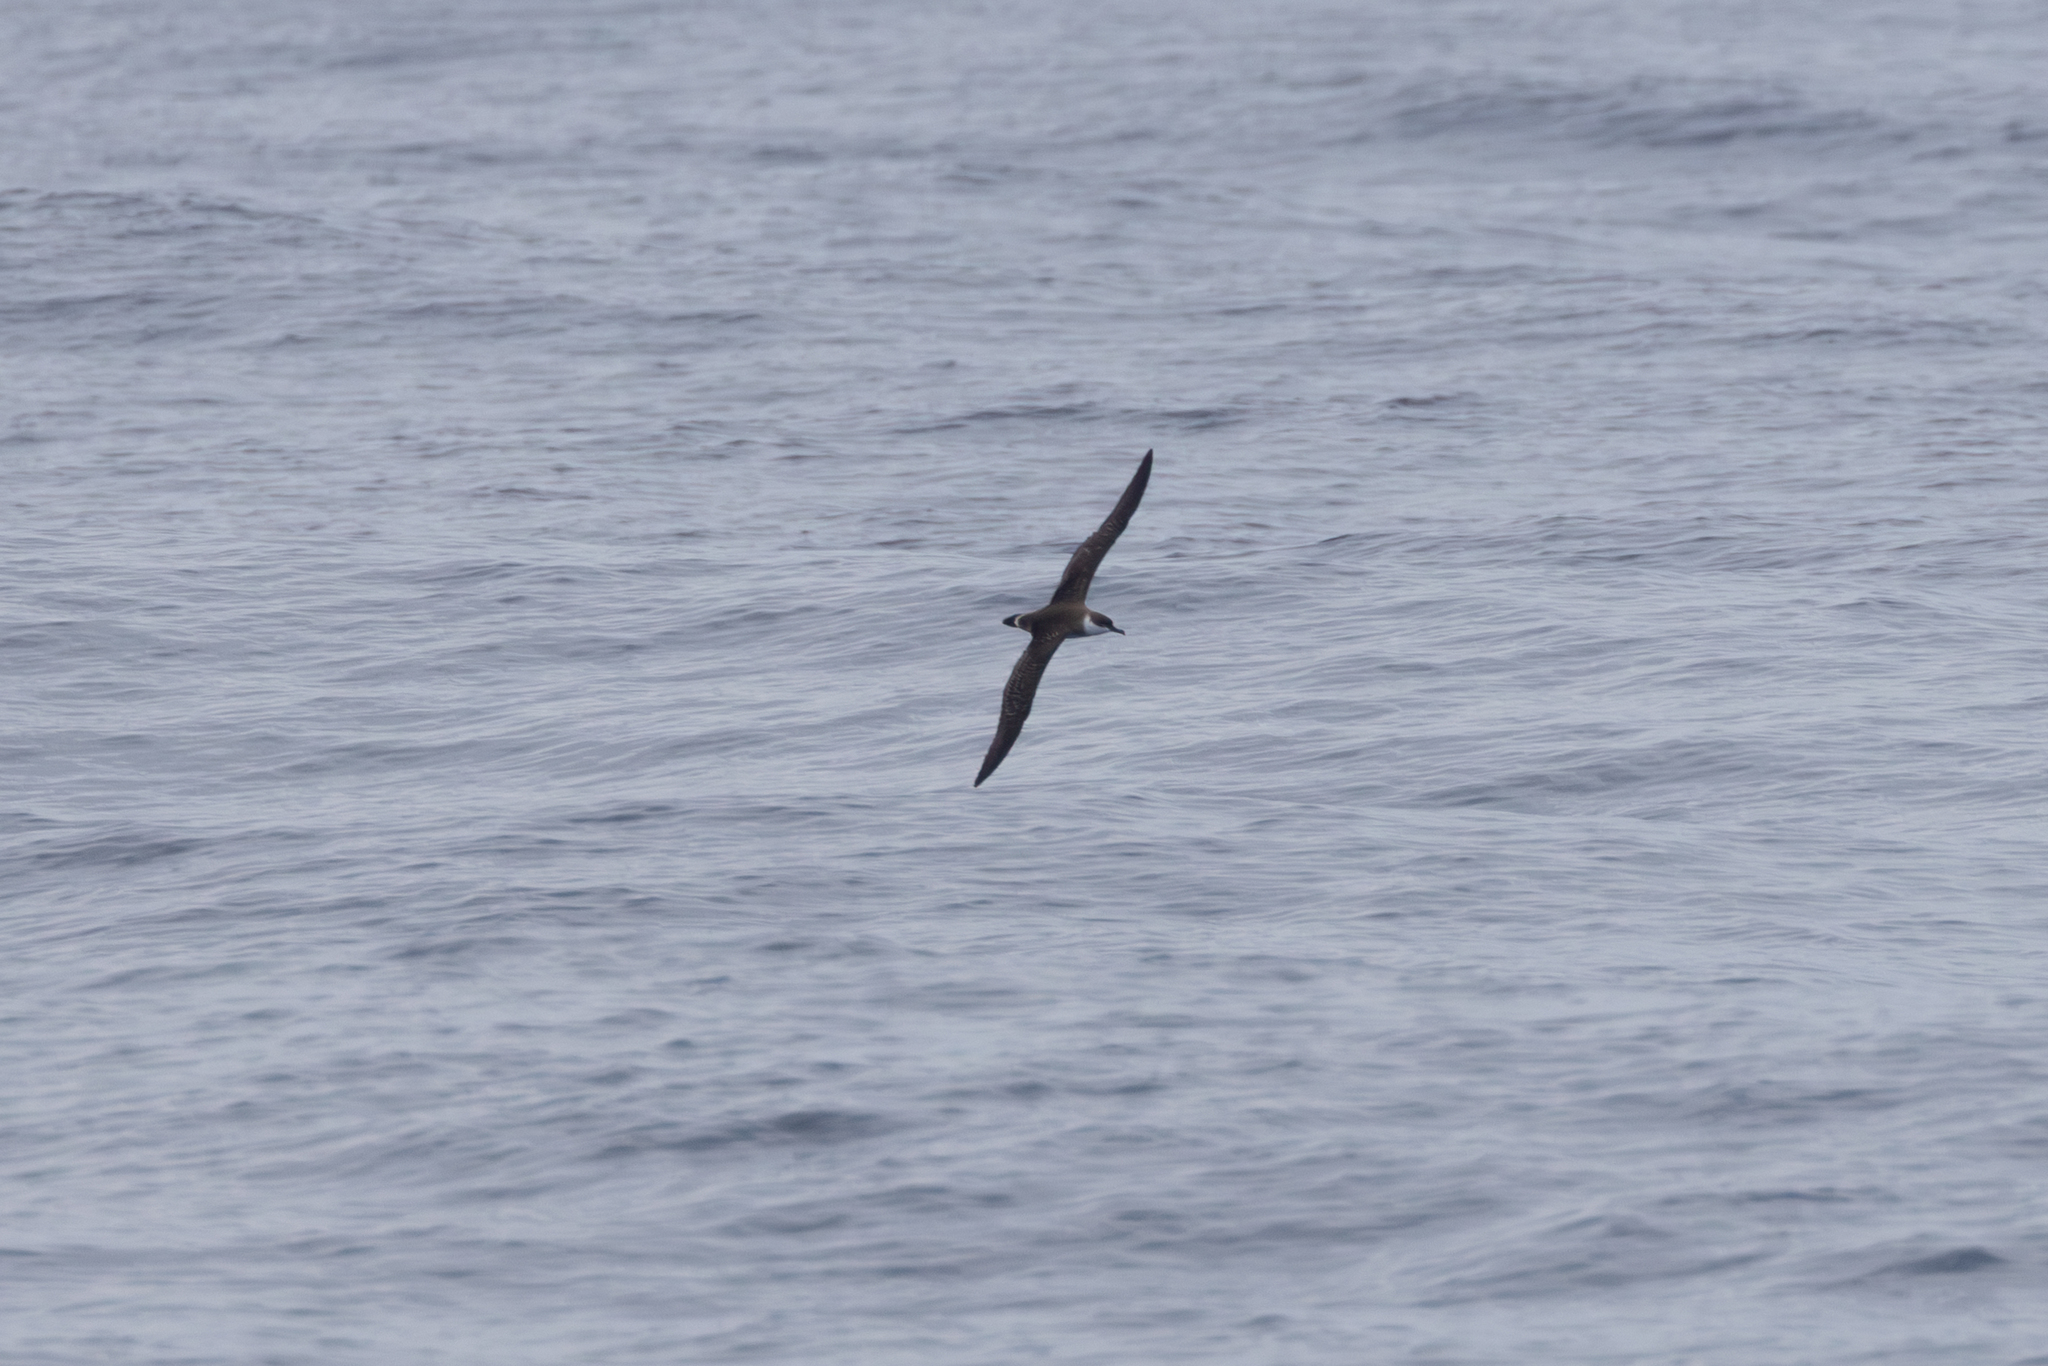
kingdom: Animalia
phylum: Chordata
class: Aves
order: Procellariiformes
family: Procellariidae
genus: Puffinus
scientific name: Puffinus gravis
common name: Great shearwater
